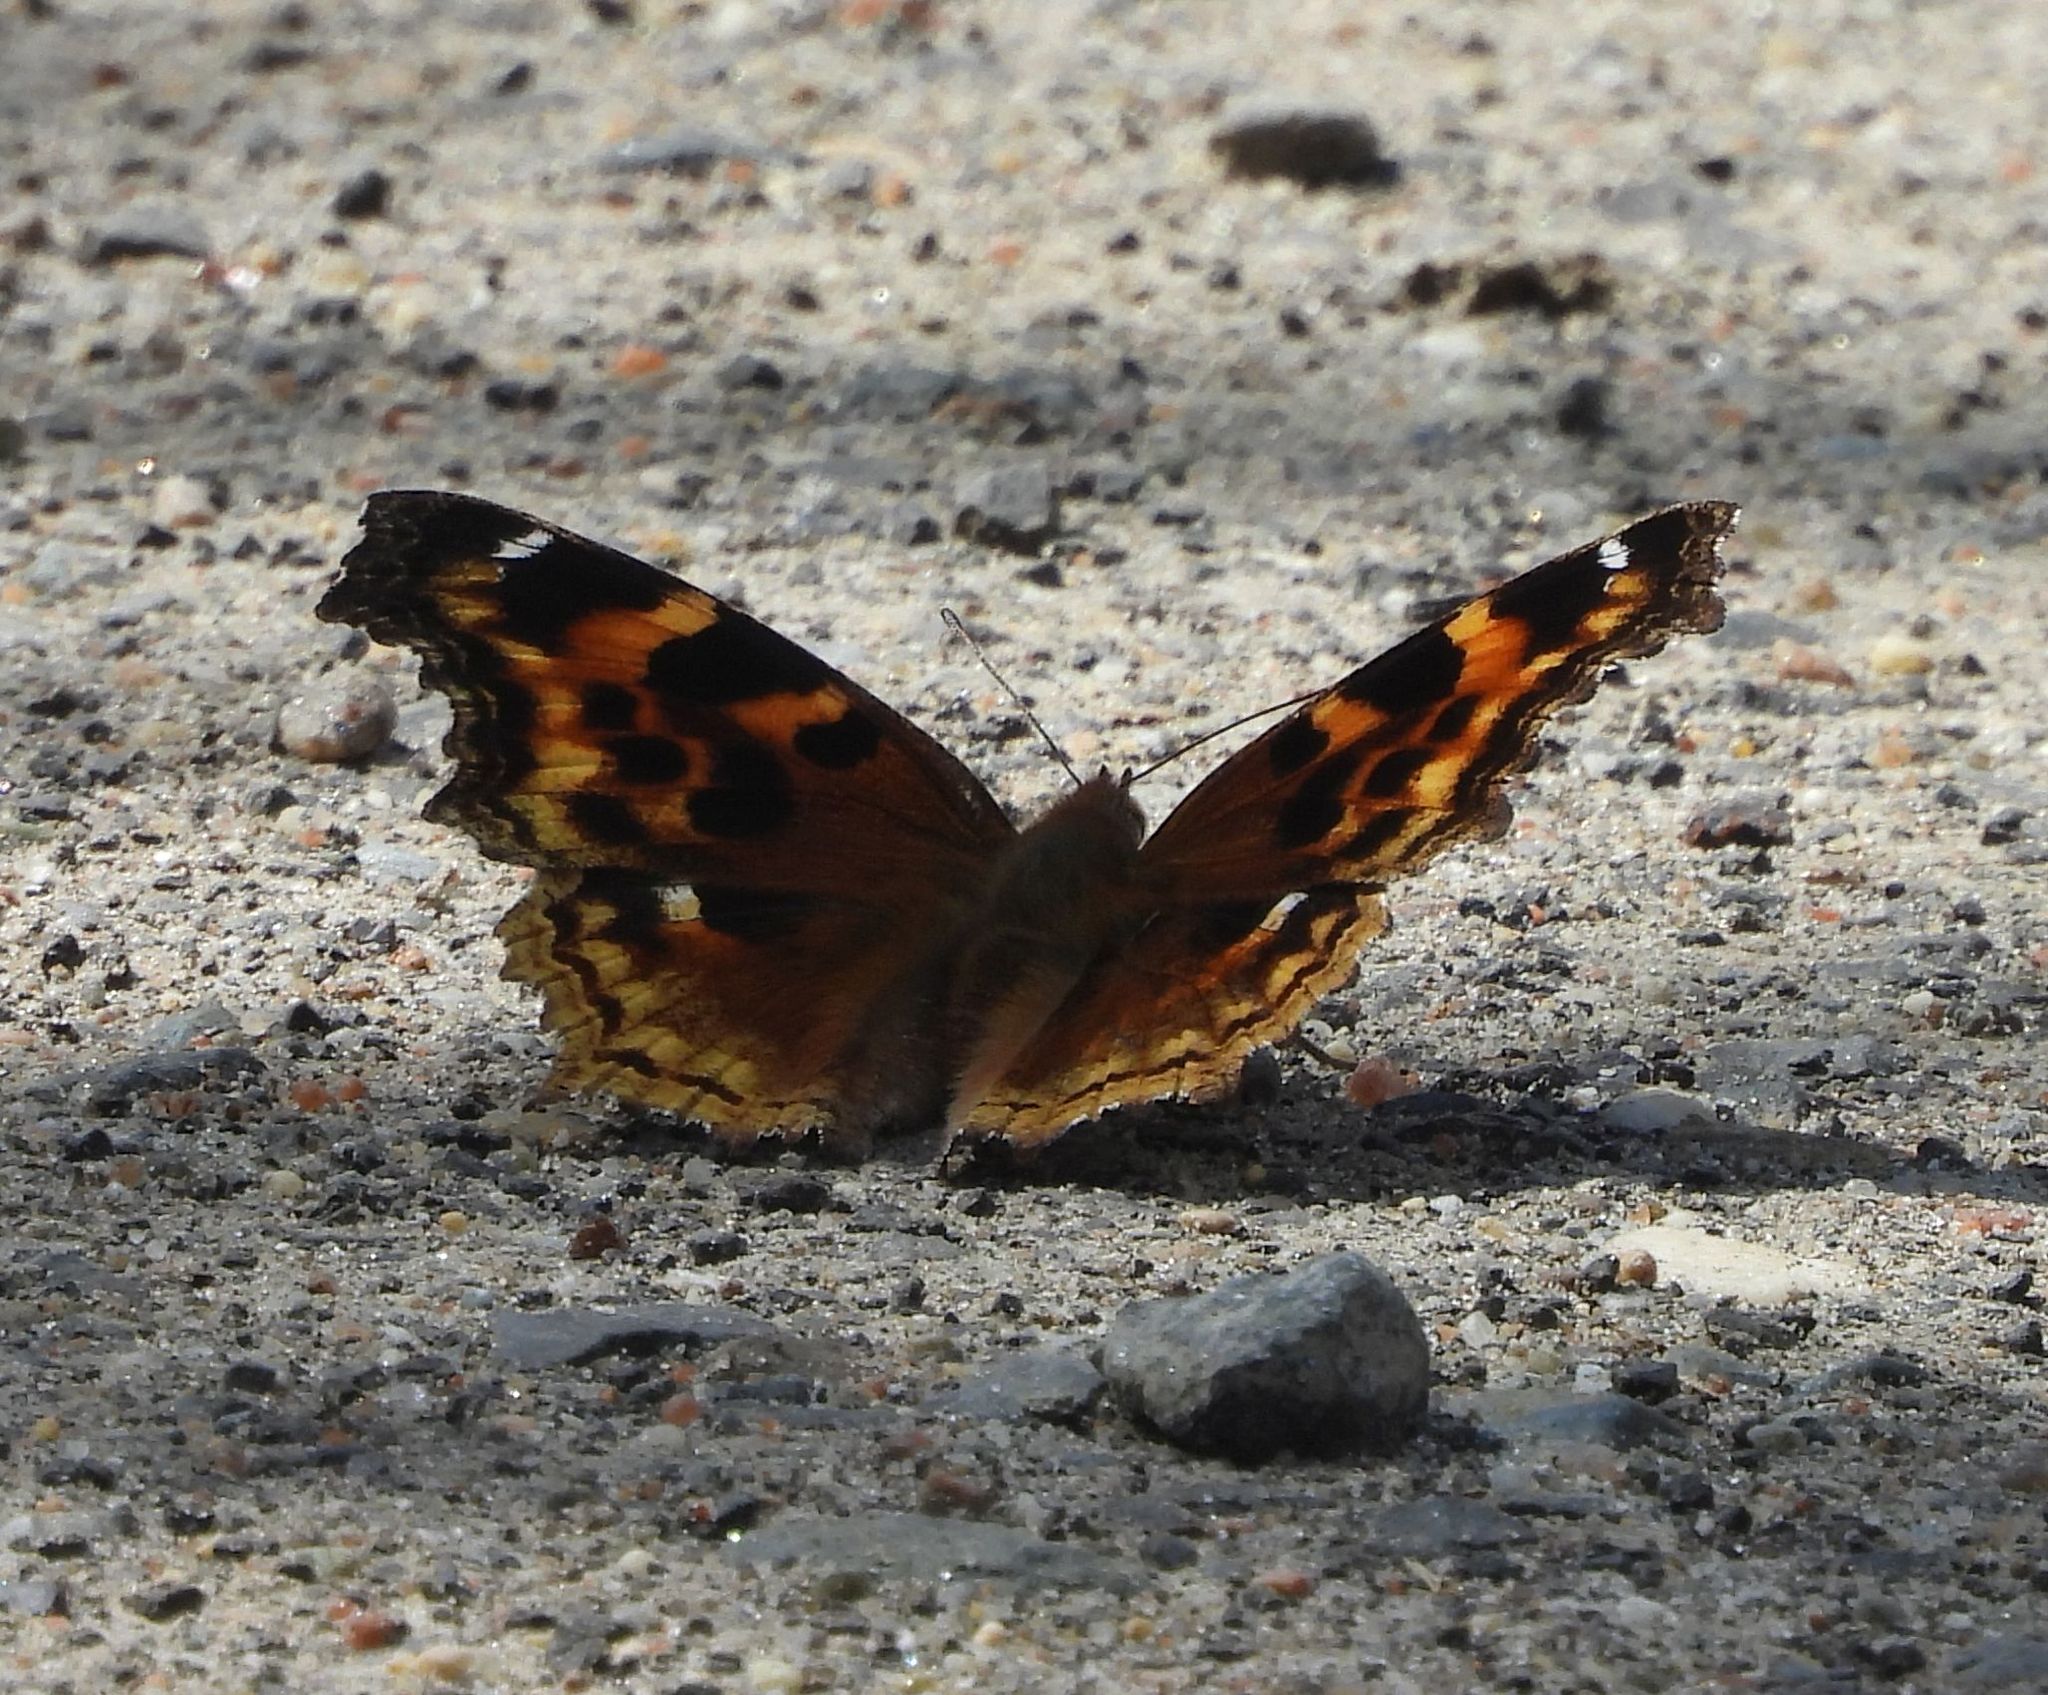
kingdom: Animalia
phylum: Arthropoda
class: Insecta
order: Lepidoptera
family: Nymphalidae
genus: Polygonia
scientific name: Polygonia vaualbum
